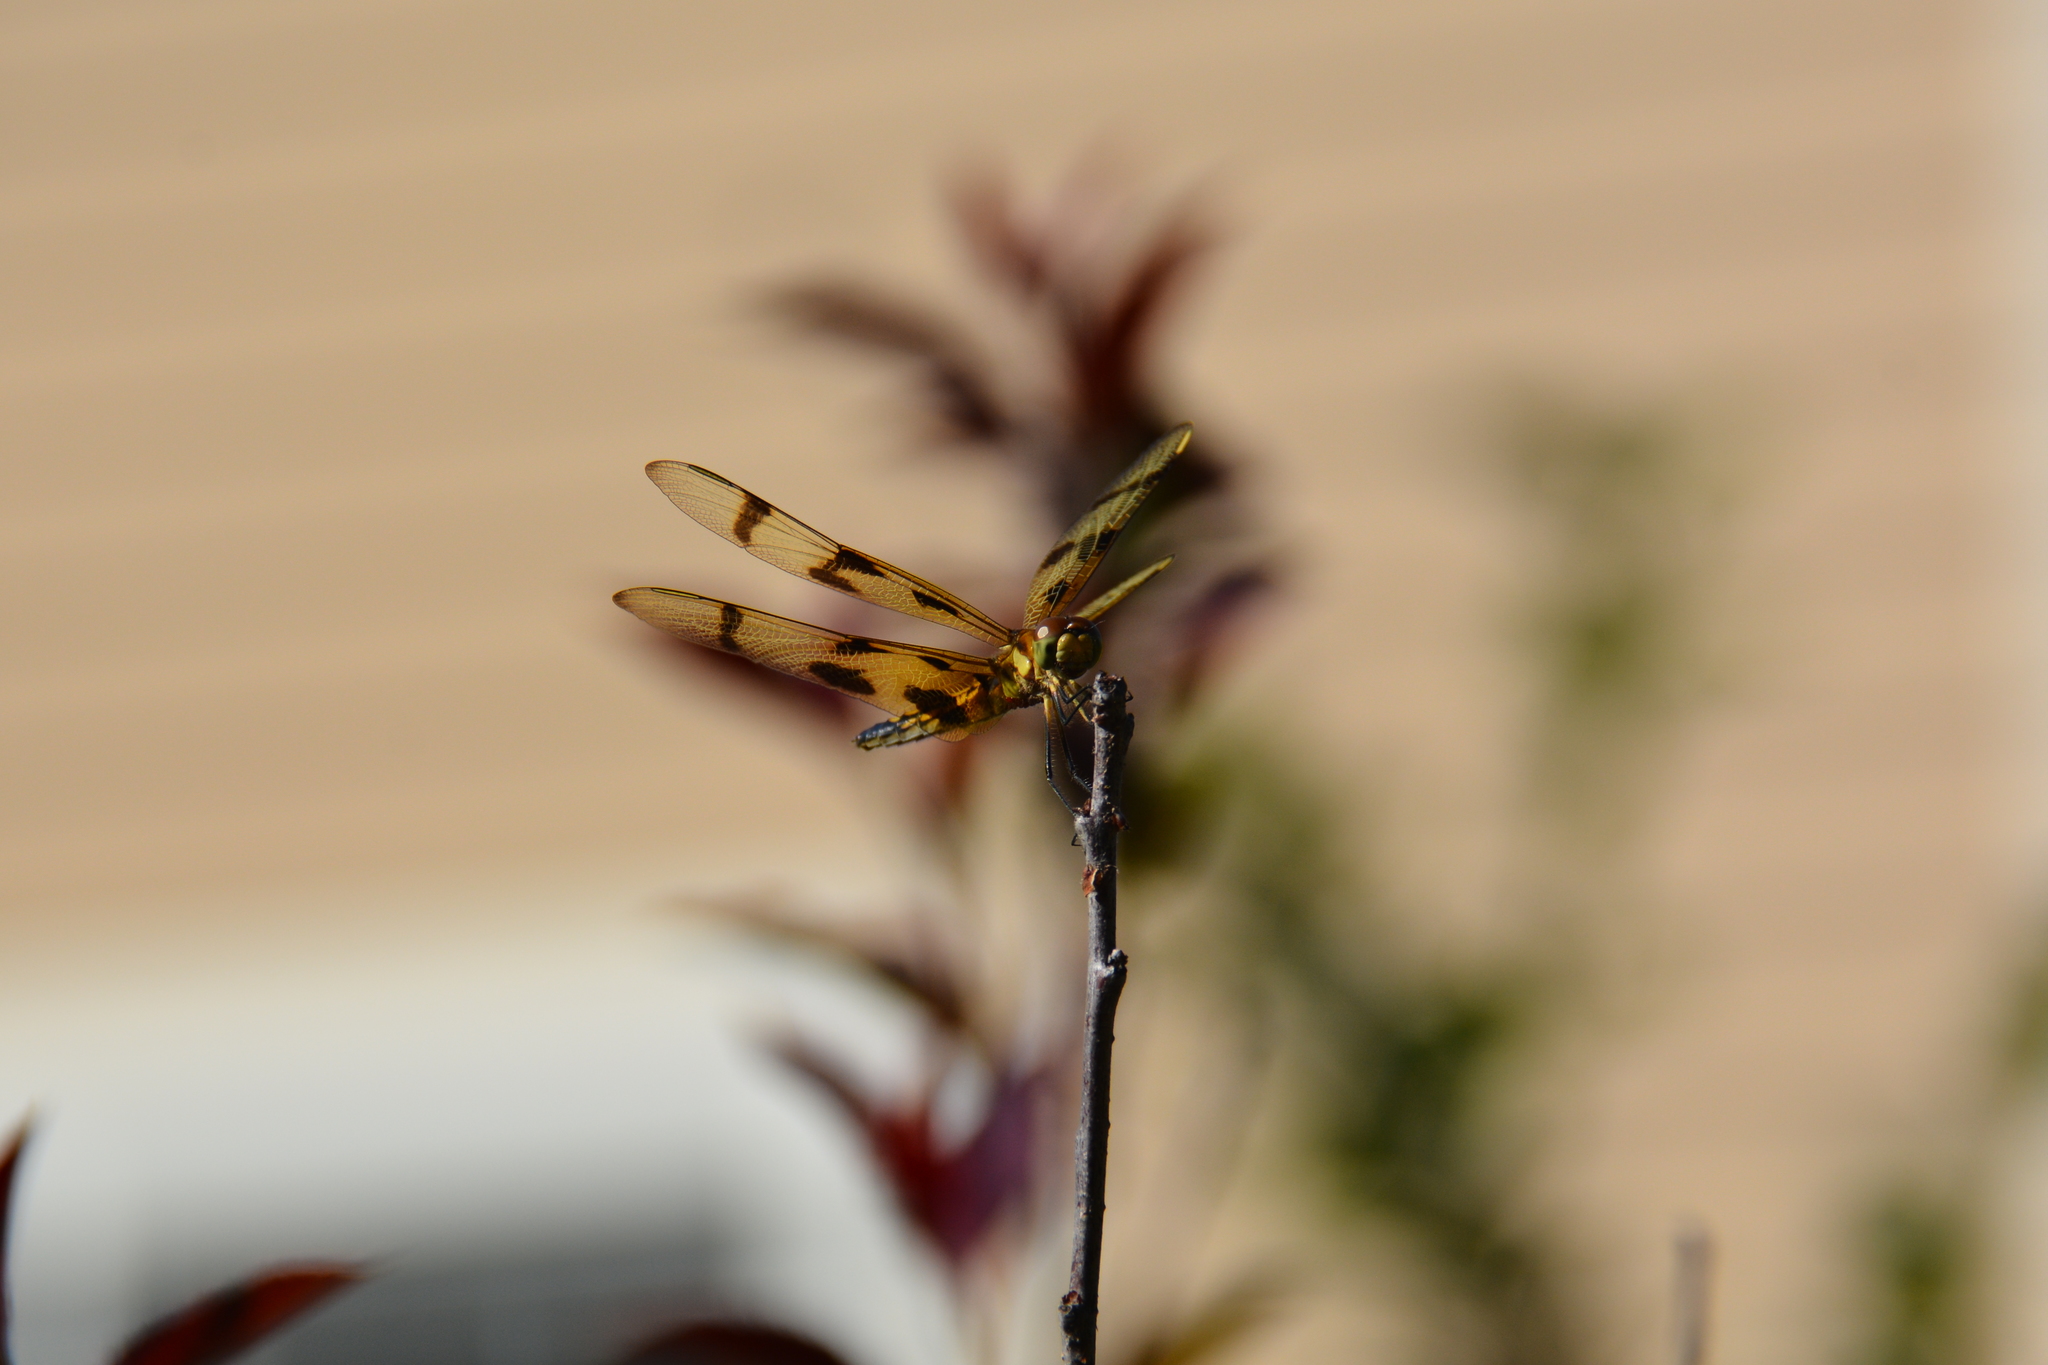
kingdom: Animalia
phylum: Arthropoda
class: Insecta
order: Odonata
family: Libellulidae
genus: Celithemis
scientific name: Celithemis eponina
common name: Halloween pennant
